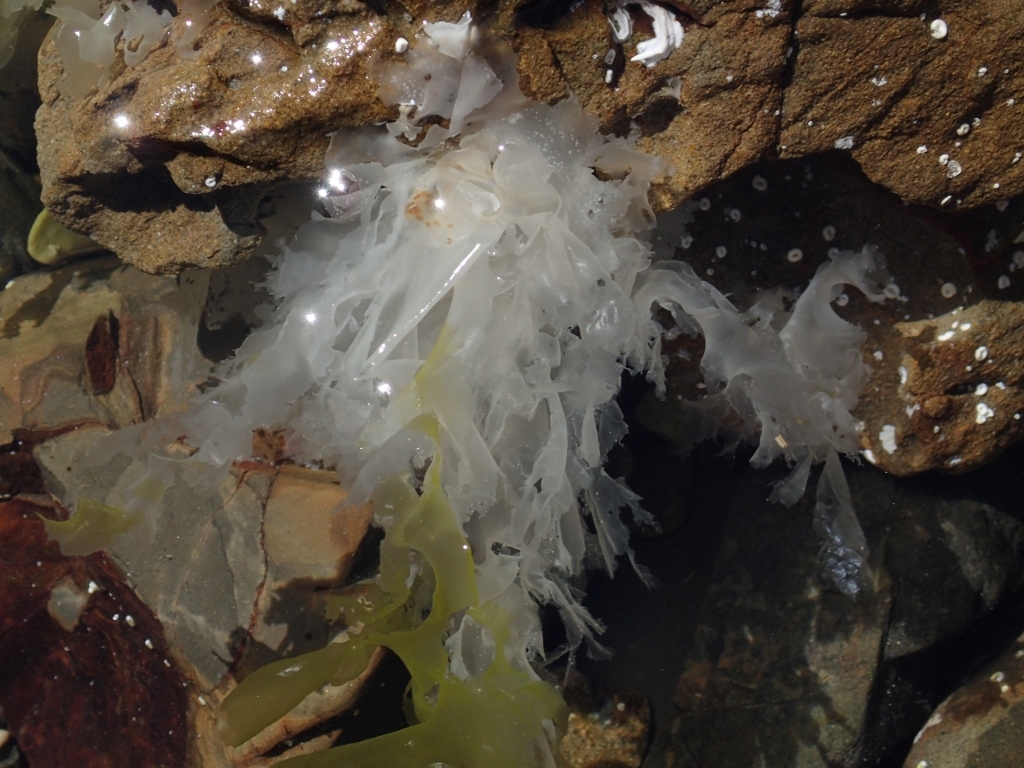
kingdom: Plantae
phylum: Chlorophyta
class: Ulvophyceae
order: Ulvales
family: Ulvaceae
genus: Ulva
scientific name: Ulva
